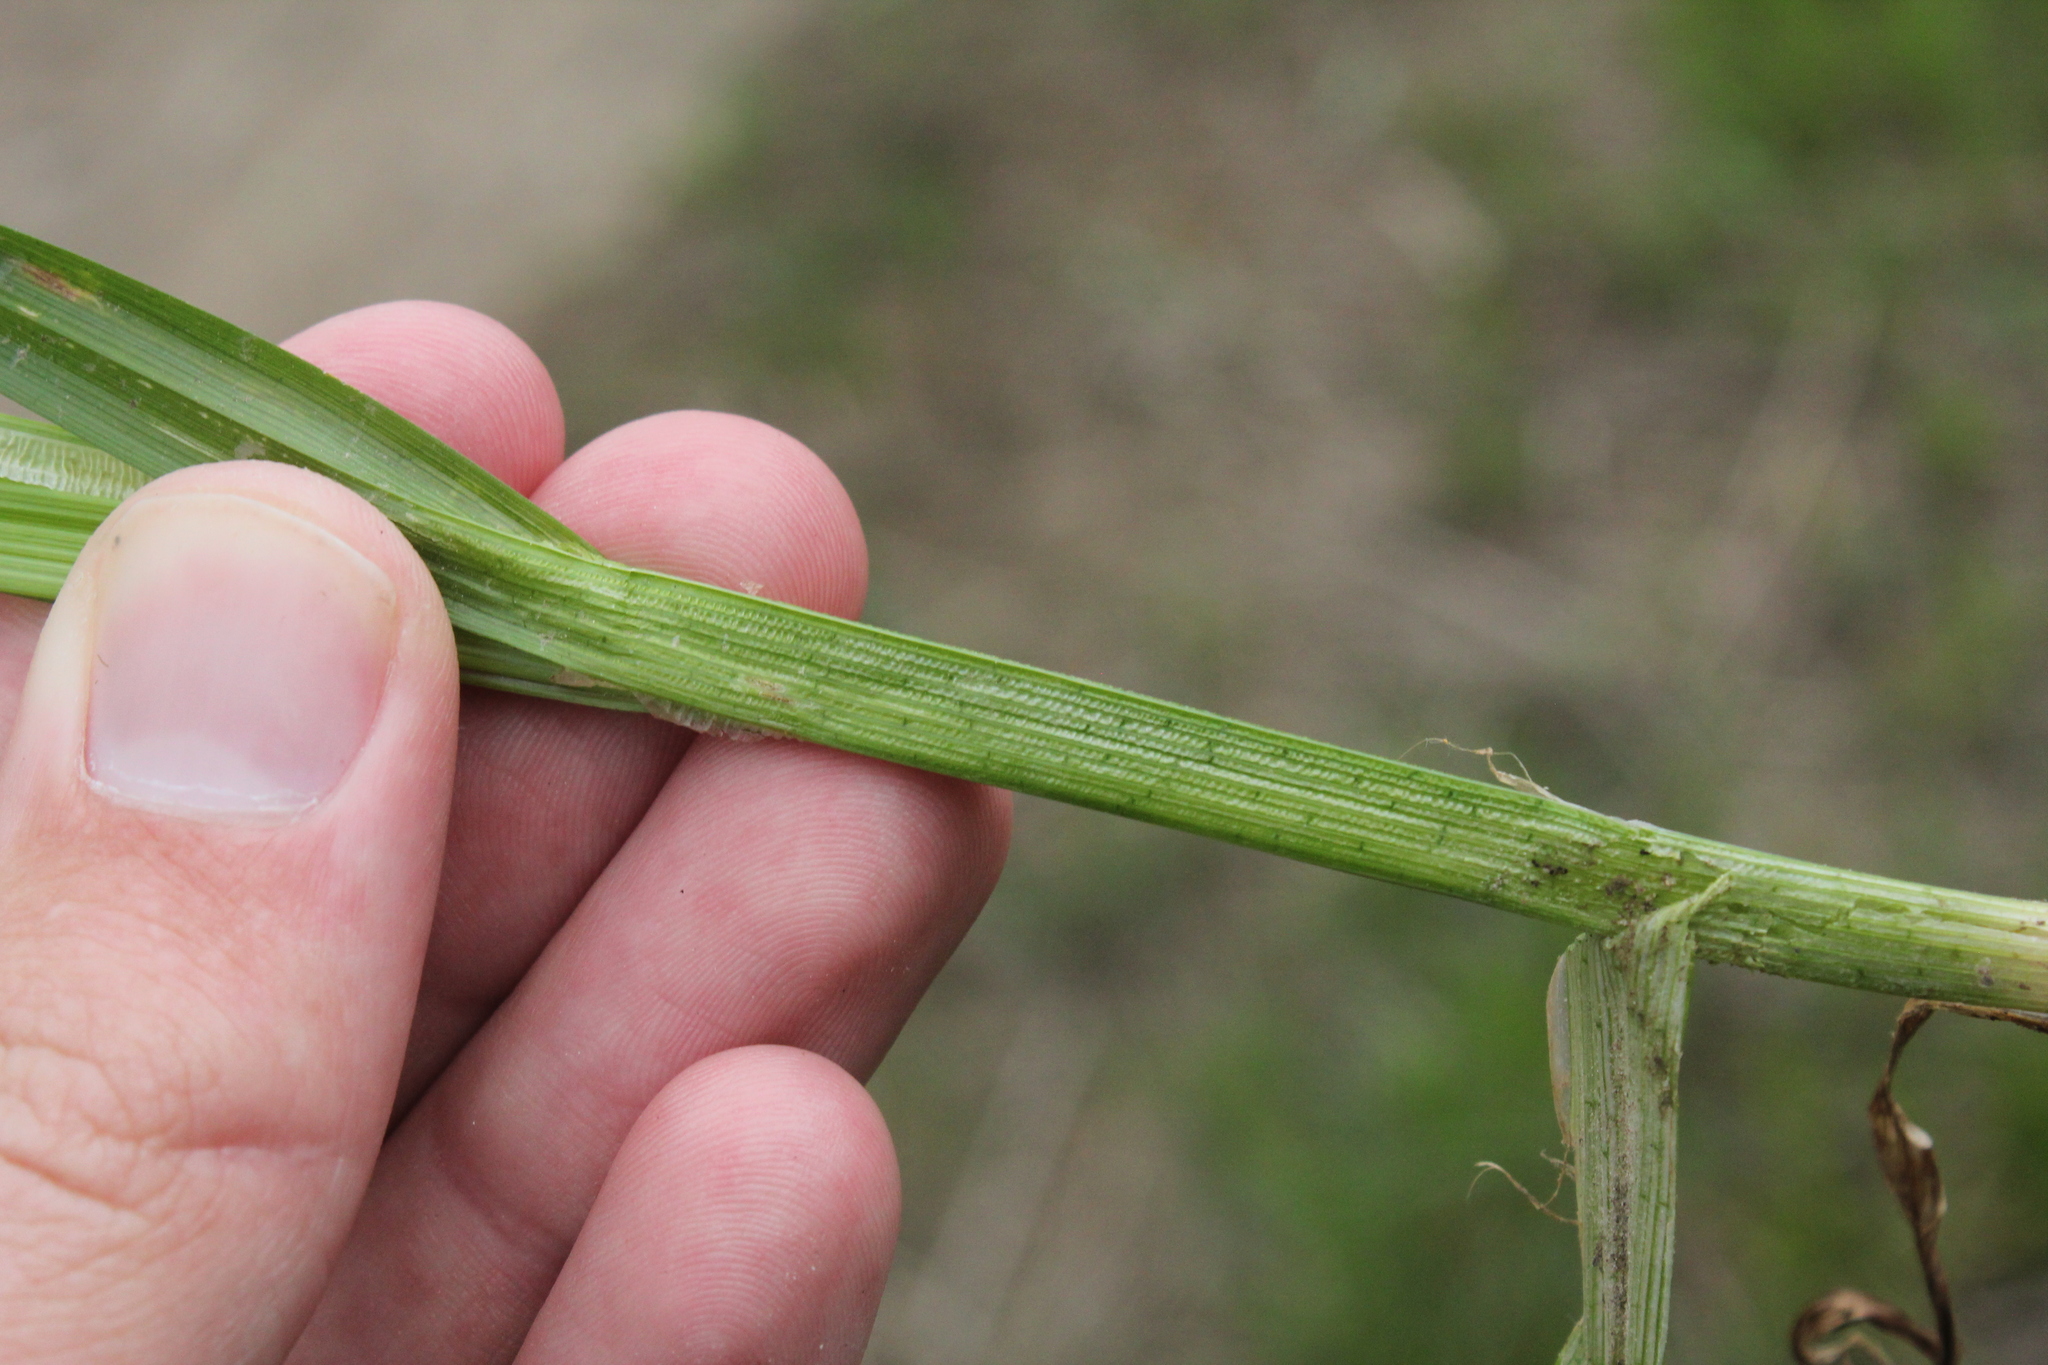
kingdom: Plantae
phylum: Tracheophyta
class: Liliopsida
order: Poales
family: Cyperaceae
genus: Carex
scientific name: Carex stipata
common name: Awl-fruited sedge
